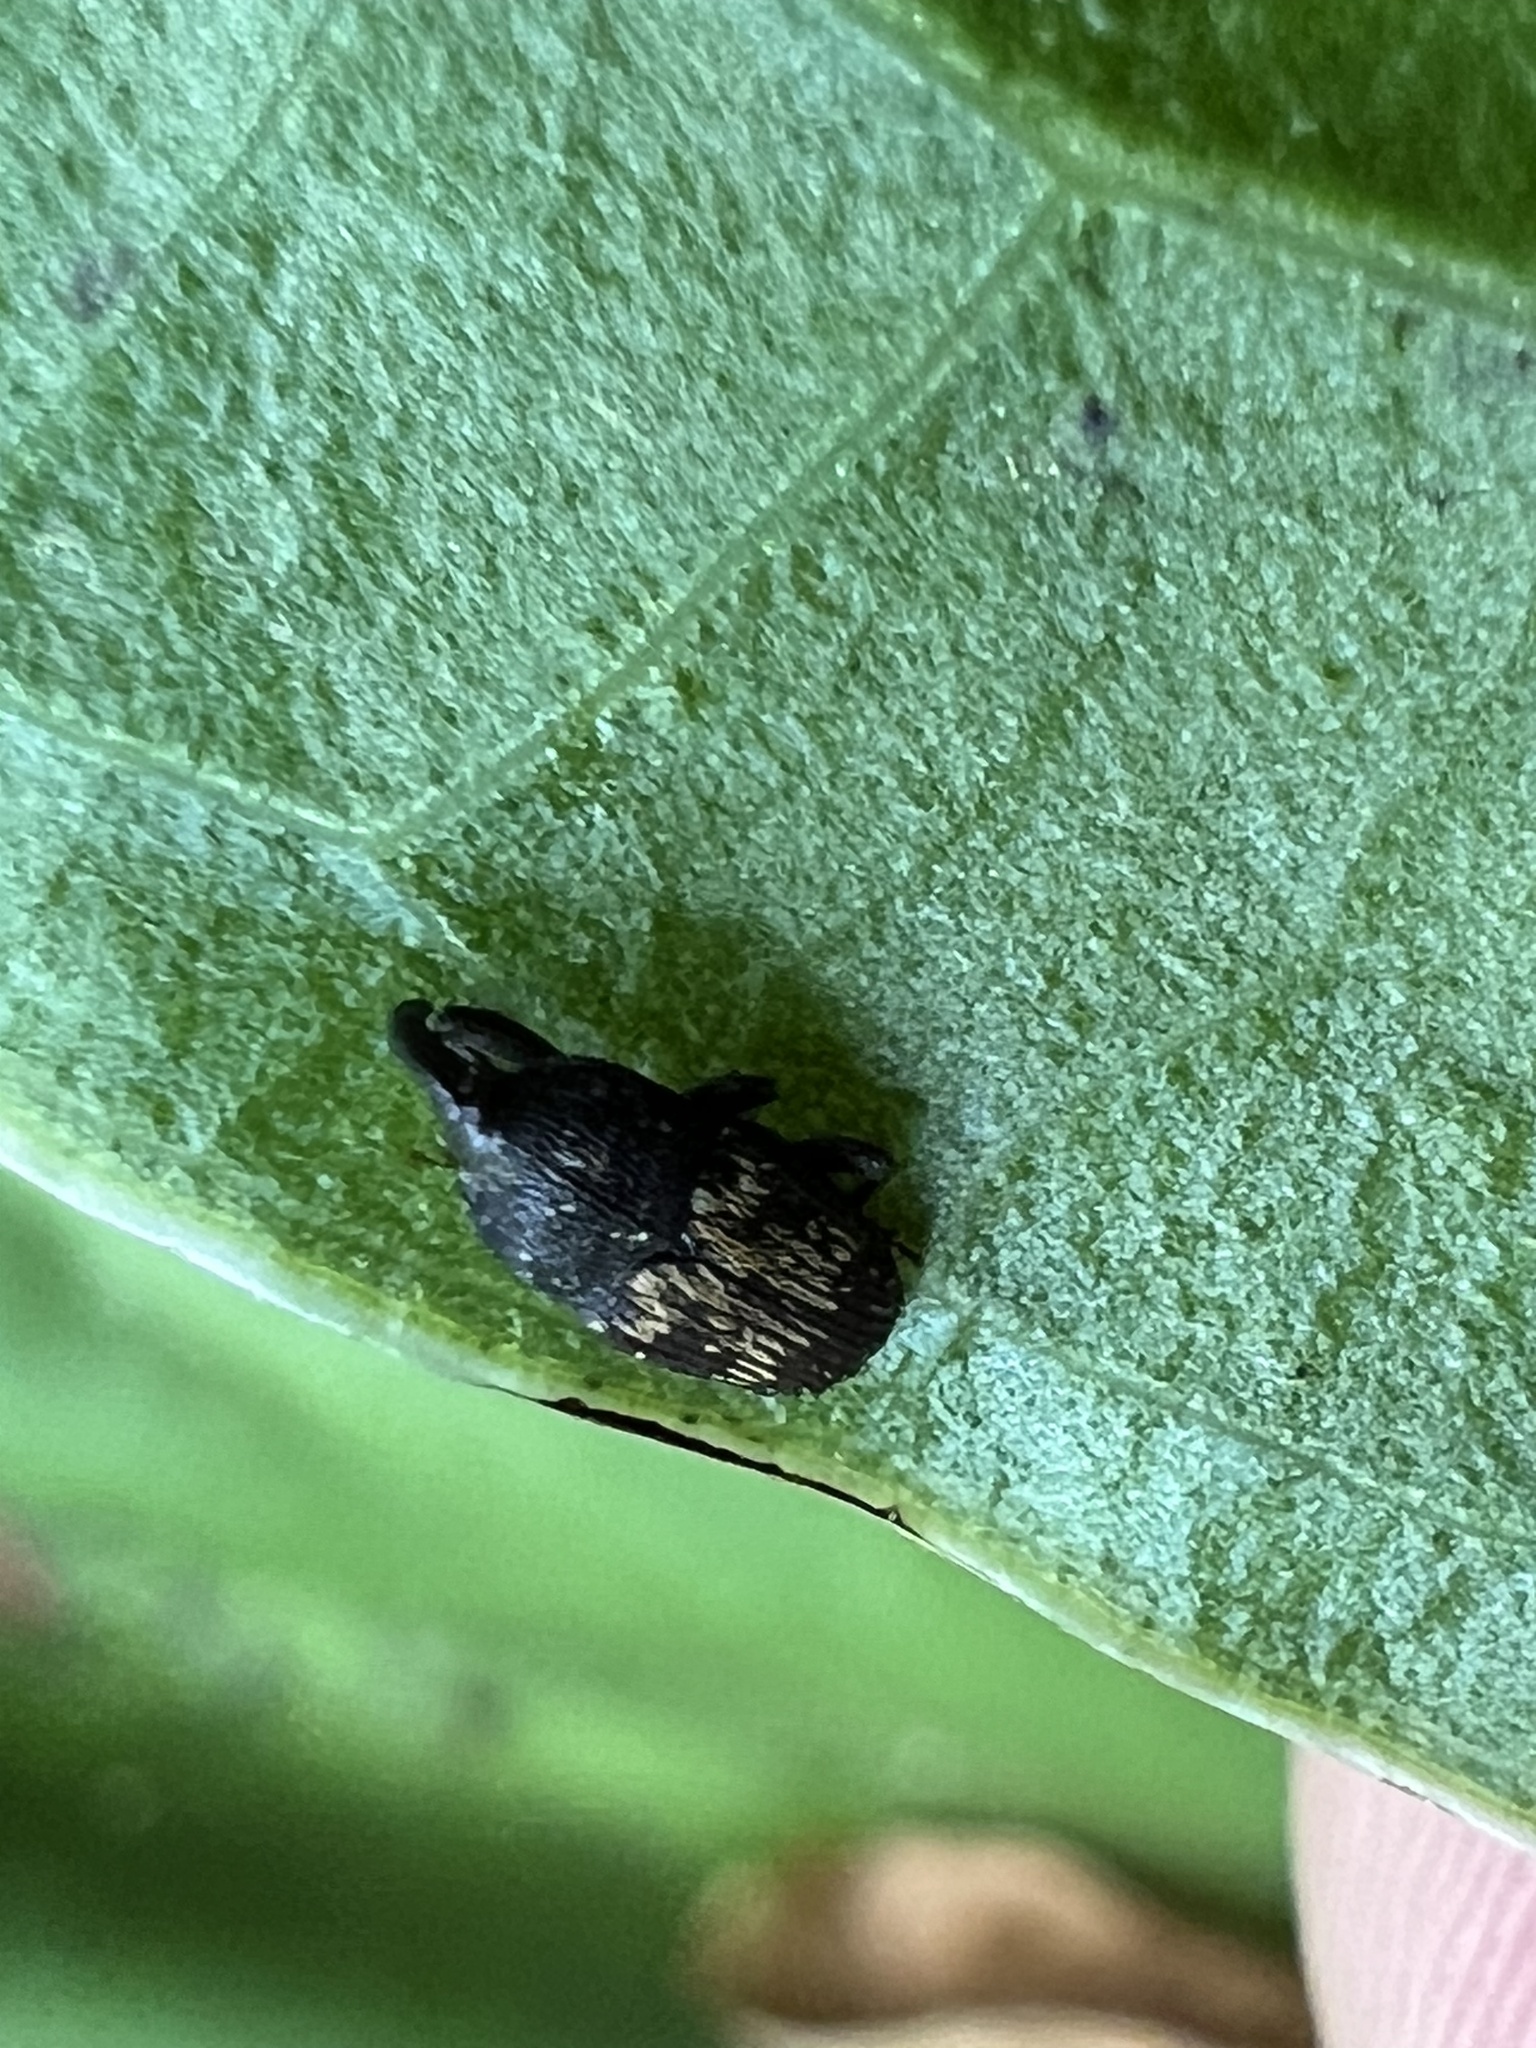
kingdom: Animalia
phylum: Arthropoda
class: Insecta
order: Coleoptera
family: Curculionidae
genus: Glyptobaris
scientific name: Glyptobaris lecontei
